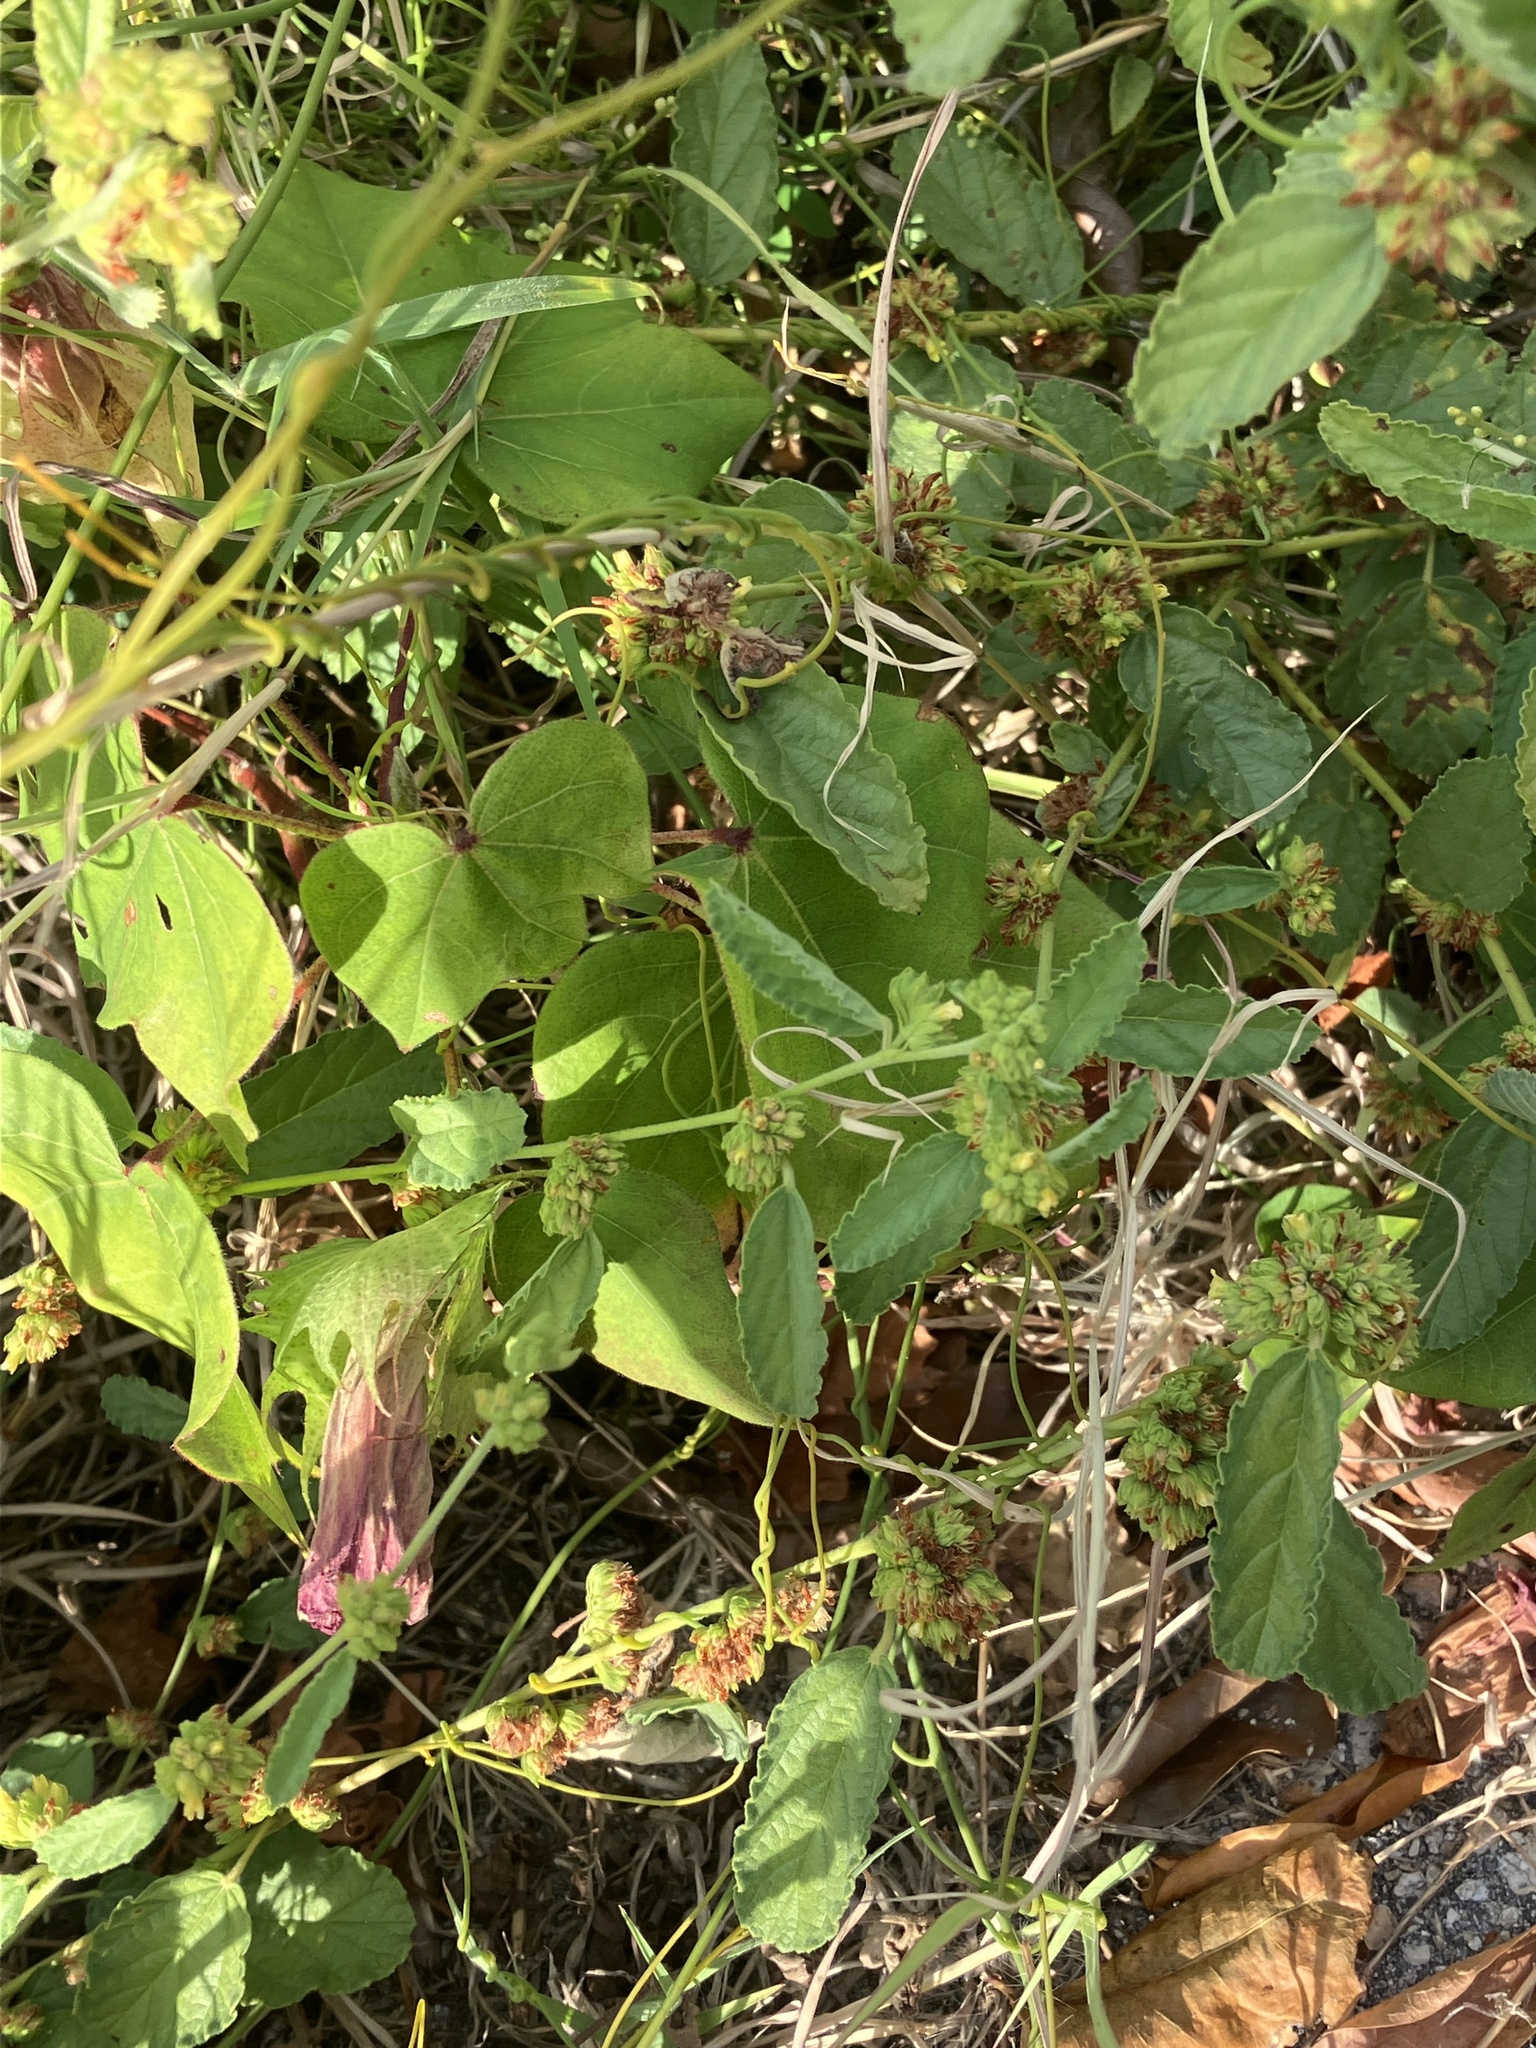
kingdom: Plantae
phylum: Tracheophyta
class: Magnoliopsida
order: Malvales
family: Malvaceae
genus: Waltheria
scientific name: Waltheria indica
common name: Leather-coat
